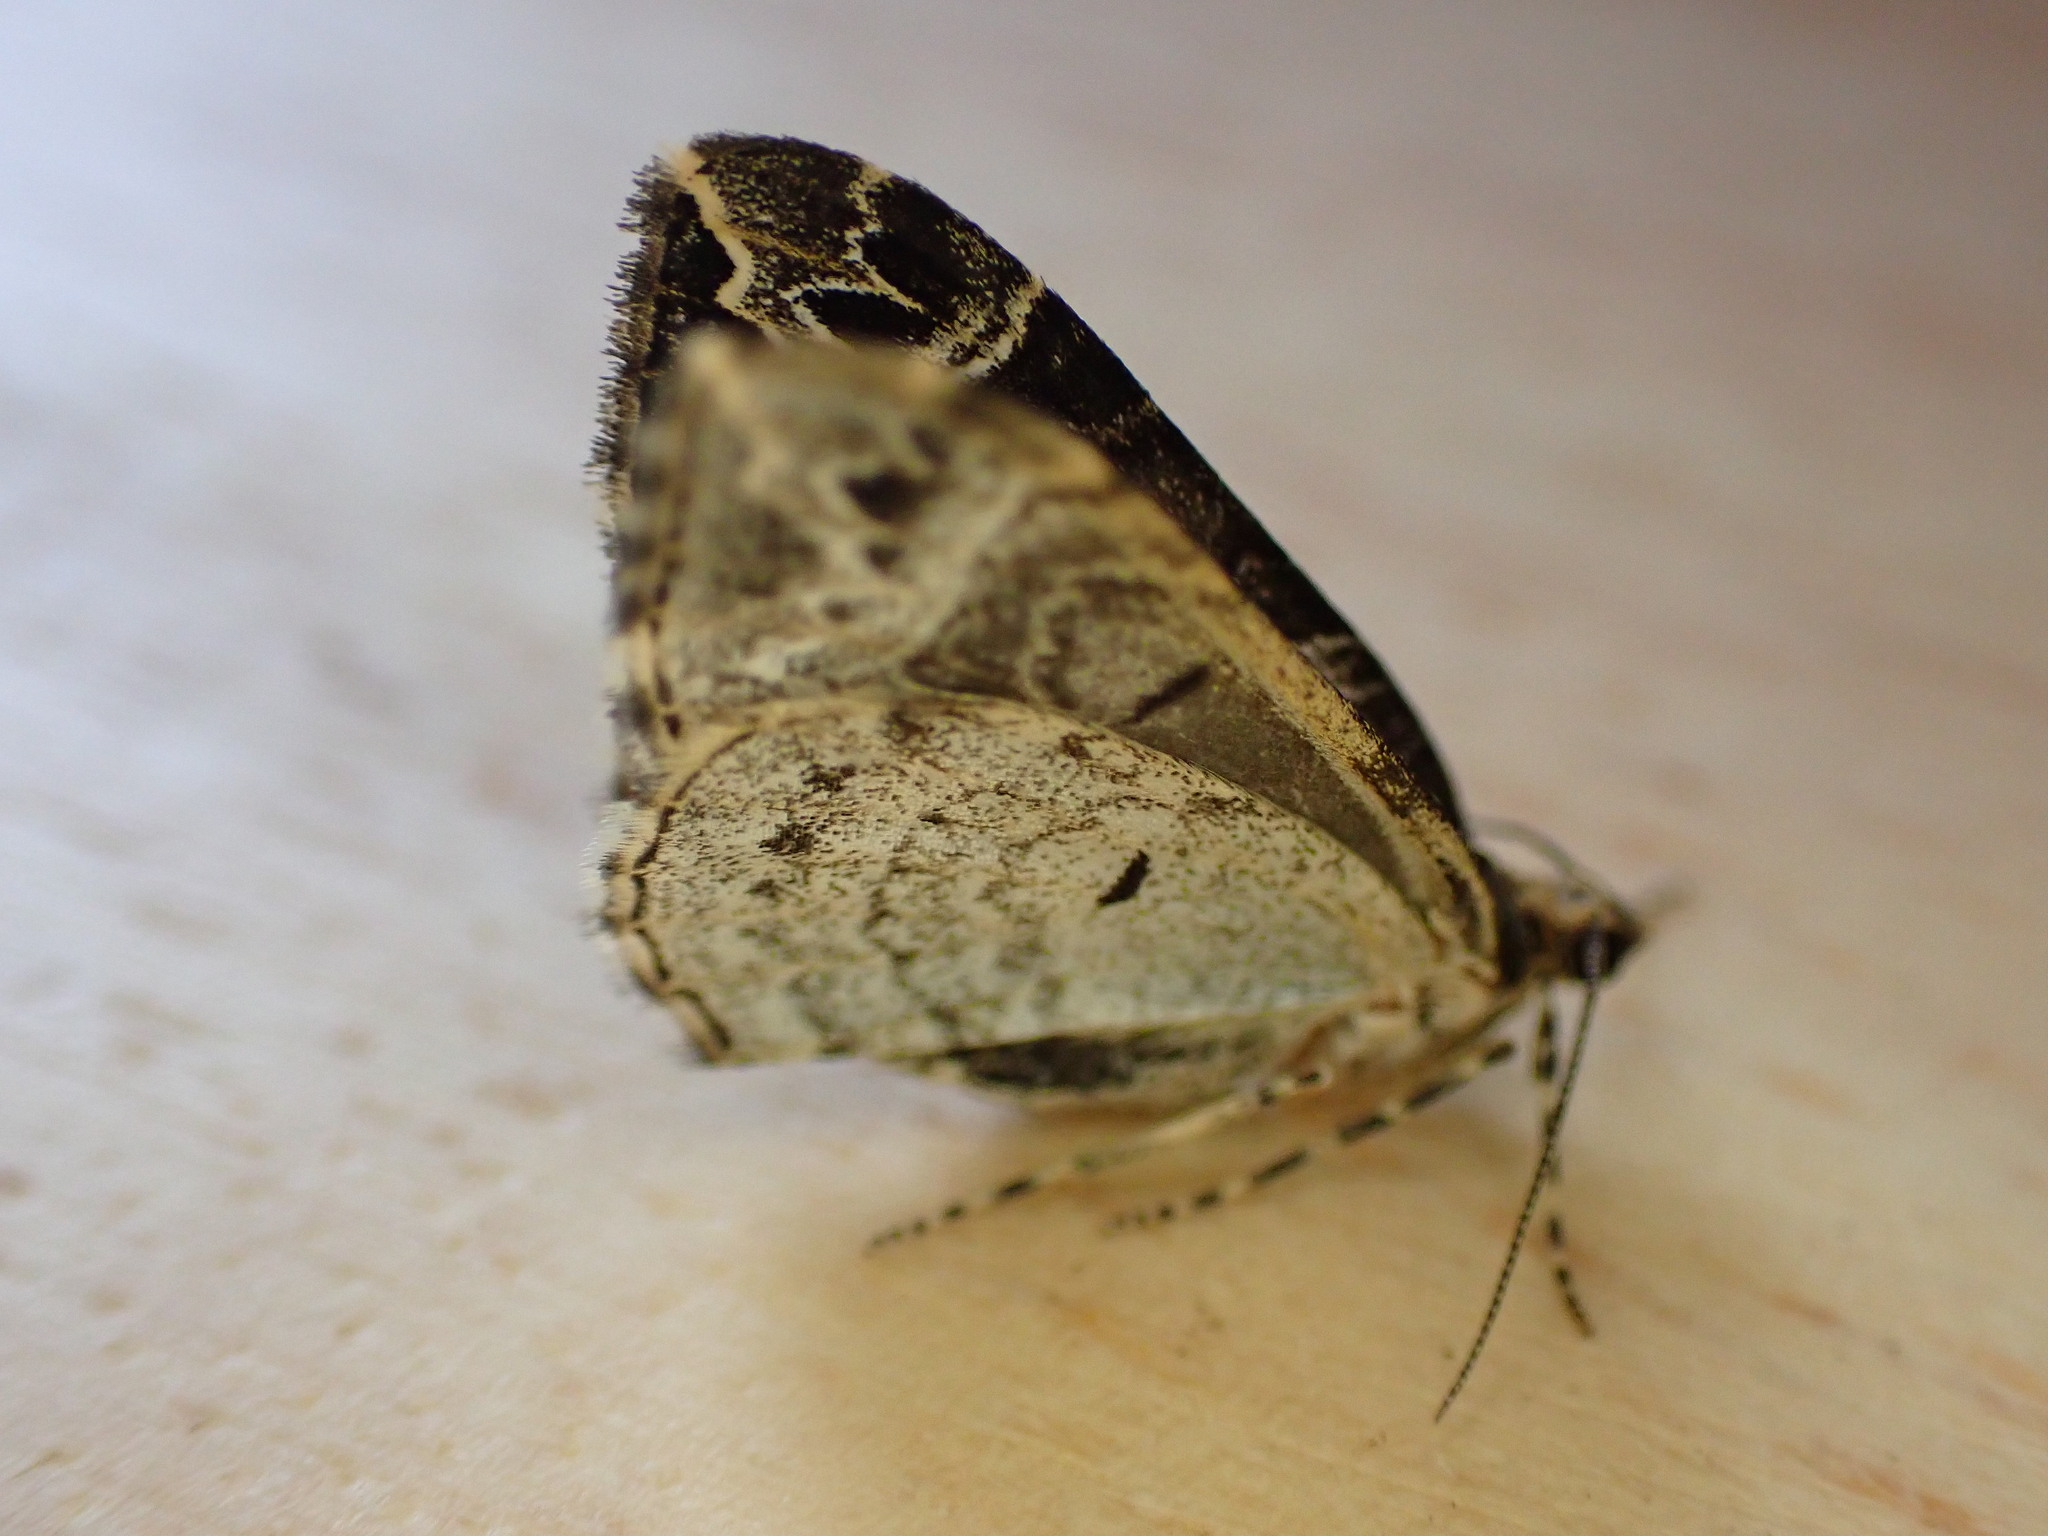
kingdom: Animalia
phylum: Arthropoda
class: Insecta
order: Lepidoptera
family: Geometridae
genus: Ecliptopera
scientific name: Ecliptopera silaceata
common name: Small phoenix
